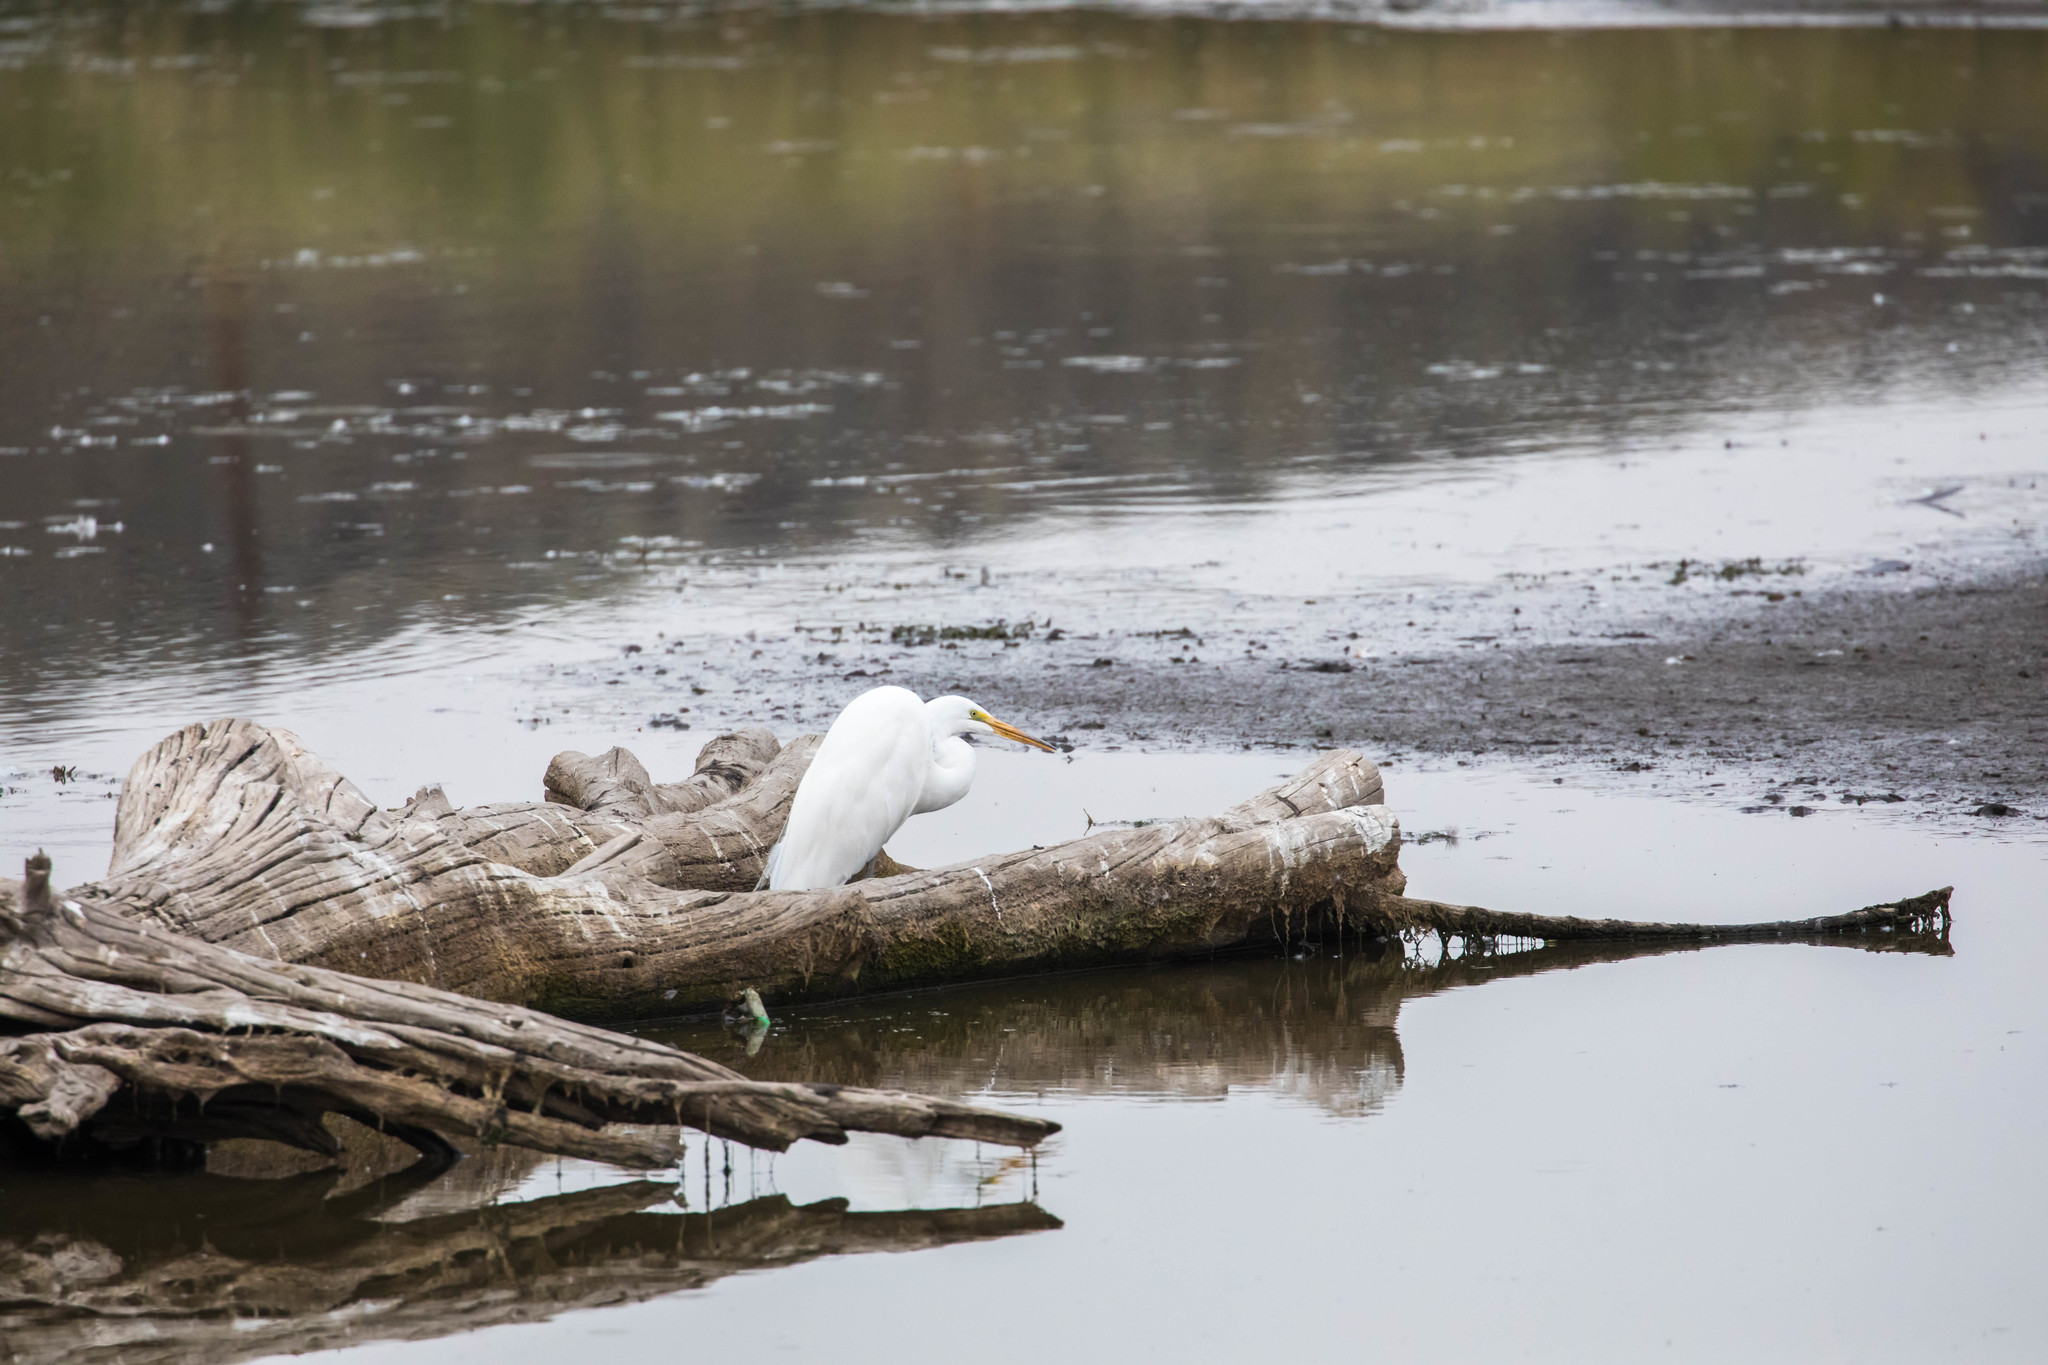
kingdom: Animalia
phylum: Chordata
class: Aves
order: Pelecaniformes
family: Ardeidae
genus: Ardea
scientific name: Ardea alba
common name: Great egret
